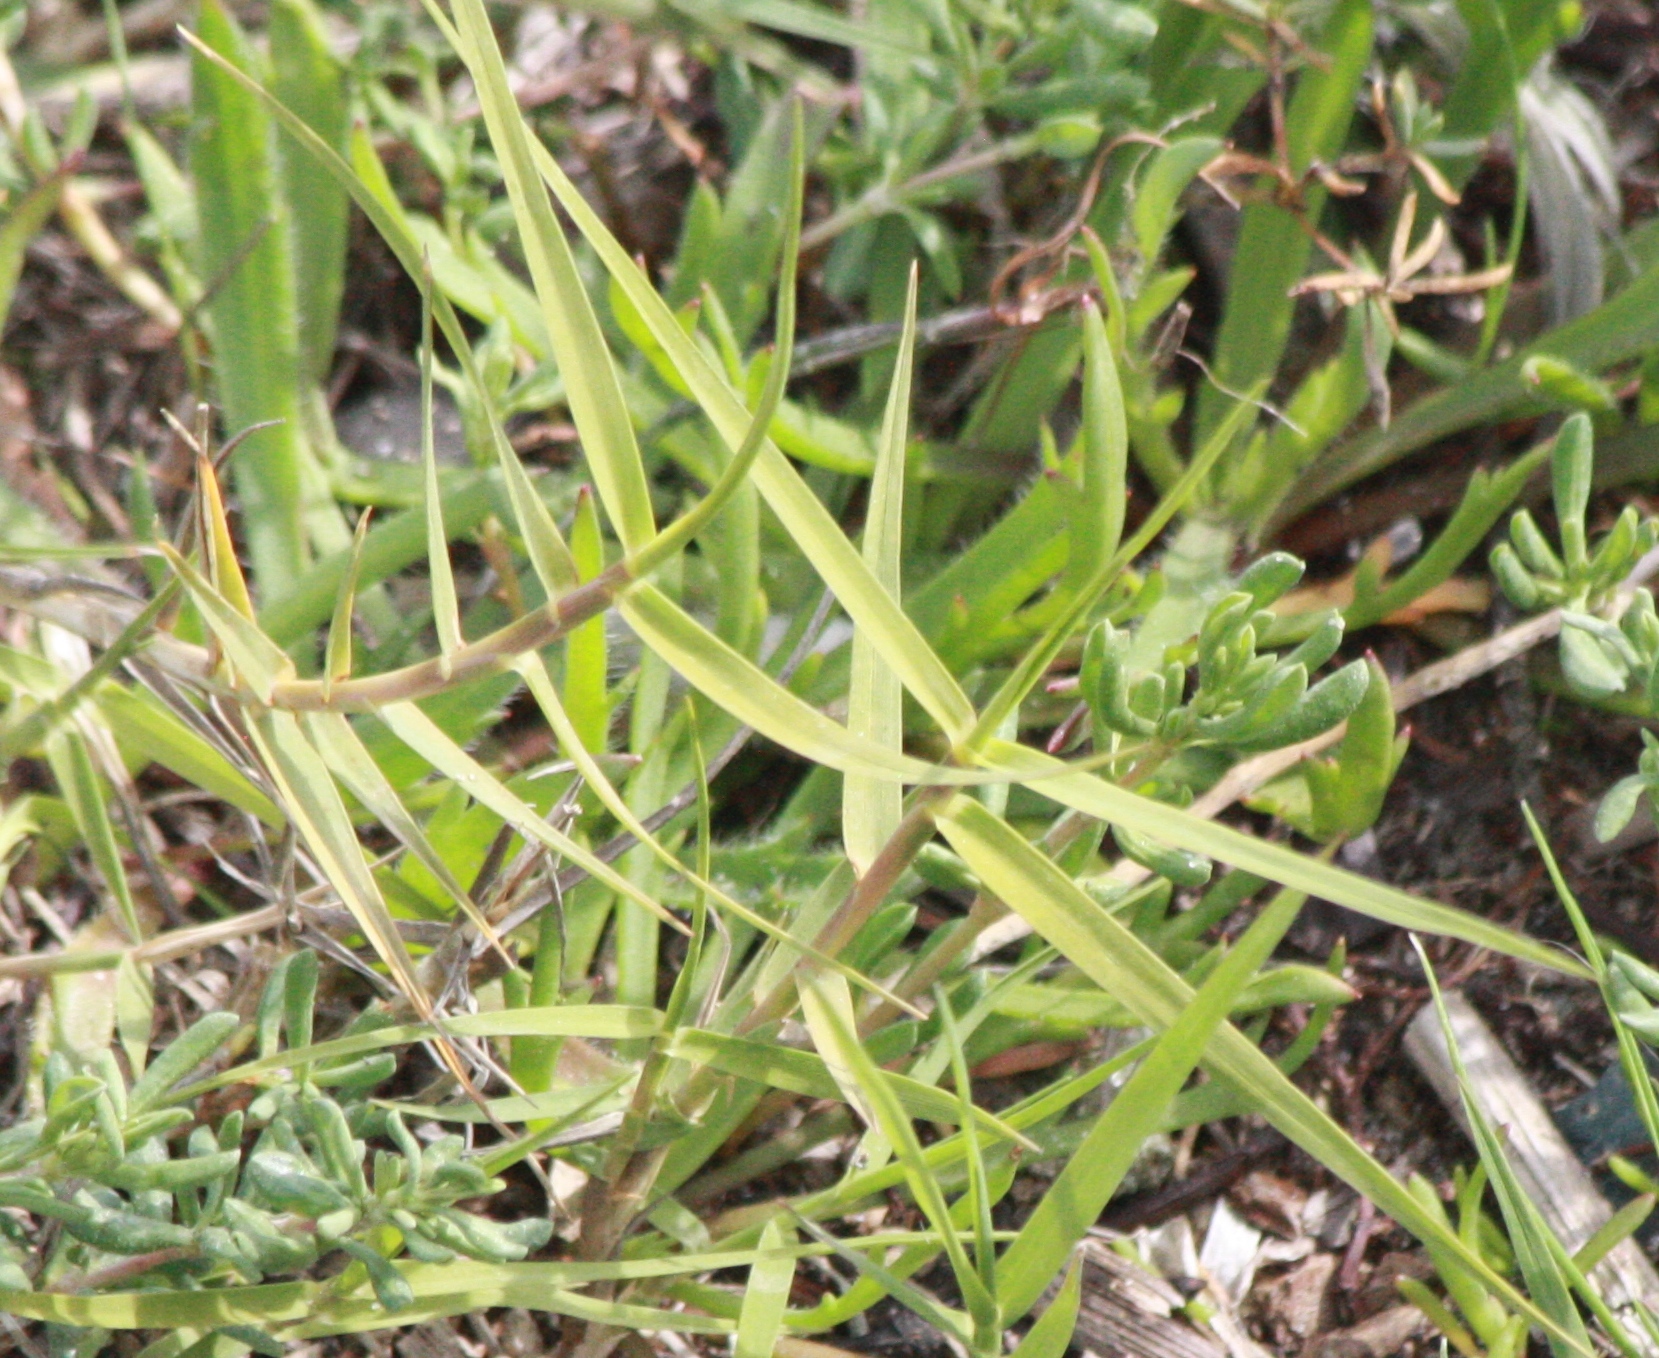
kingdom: Plantae
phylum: Tracheophyta
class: Liliopsida
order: Poales
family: Poaceae
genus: Distichlis
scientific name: Distichlis spicata
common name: Saltgrass
